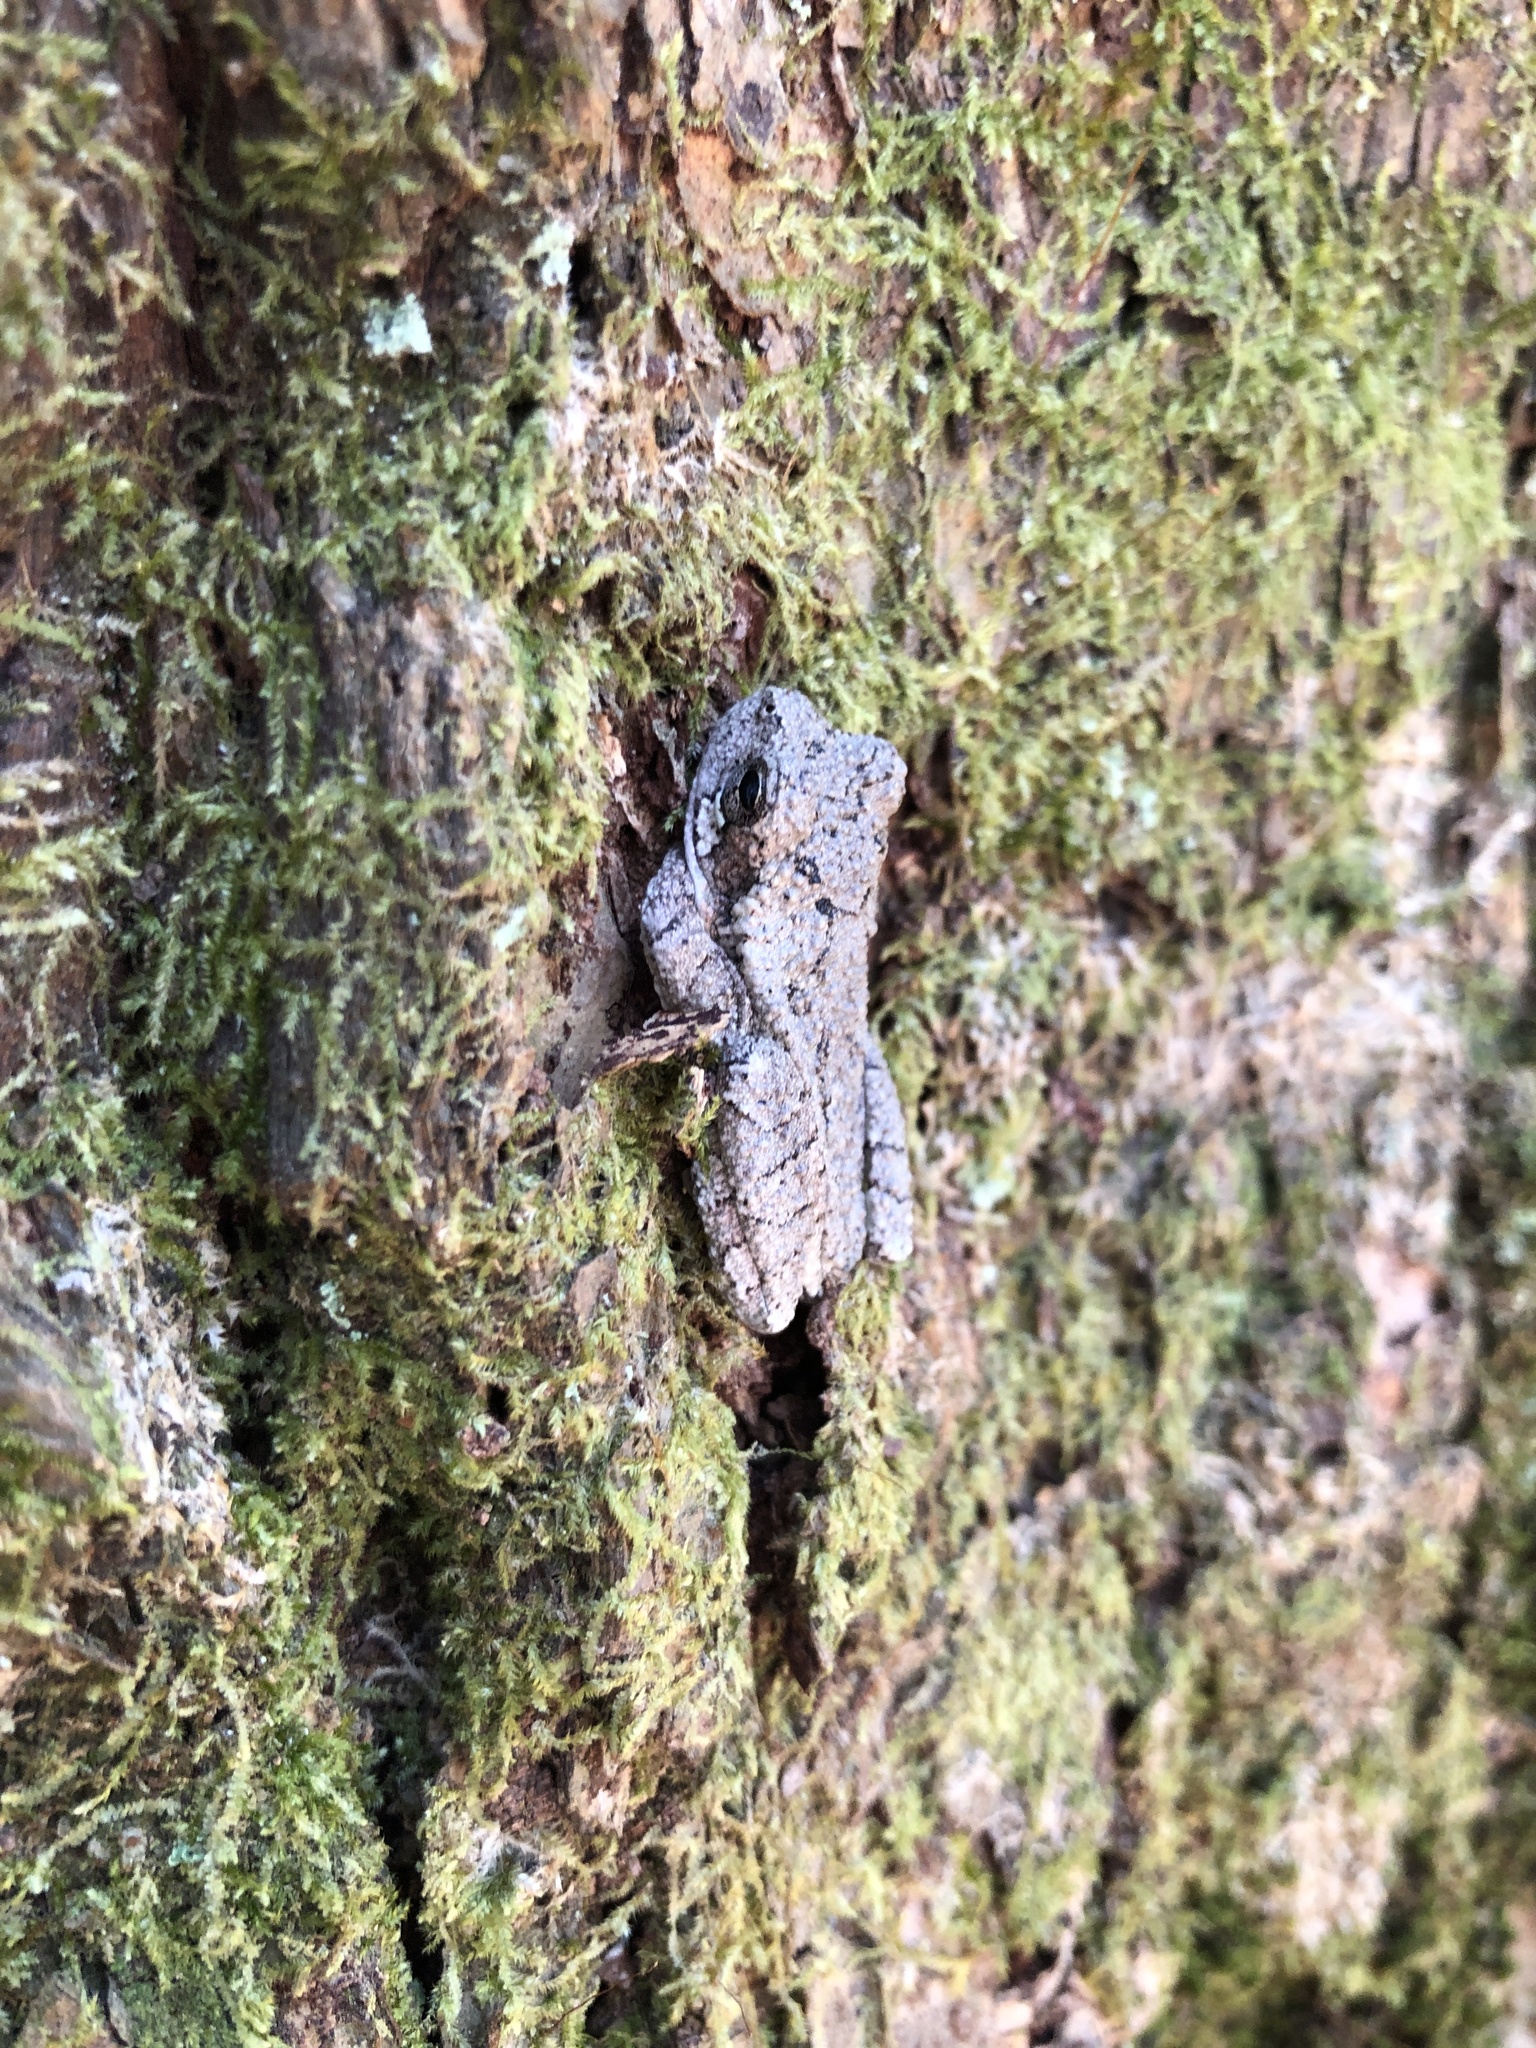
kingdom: Animalia
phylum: Chordata
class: Amphibia
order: Anura
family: Hylidae
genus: Dryophytes
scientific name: Dryophytes chrysoscelis
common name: Cope's gray treefrog
